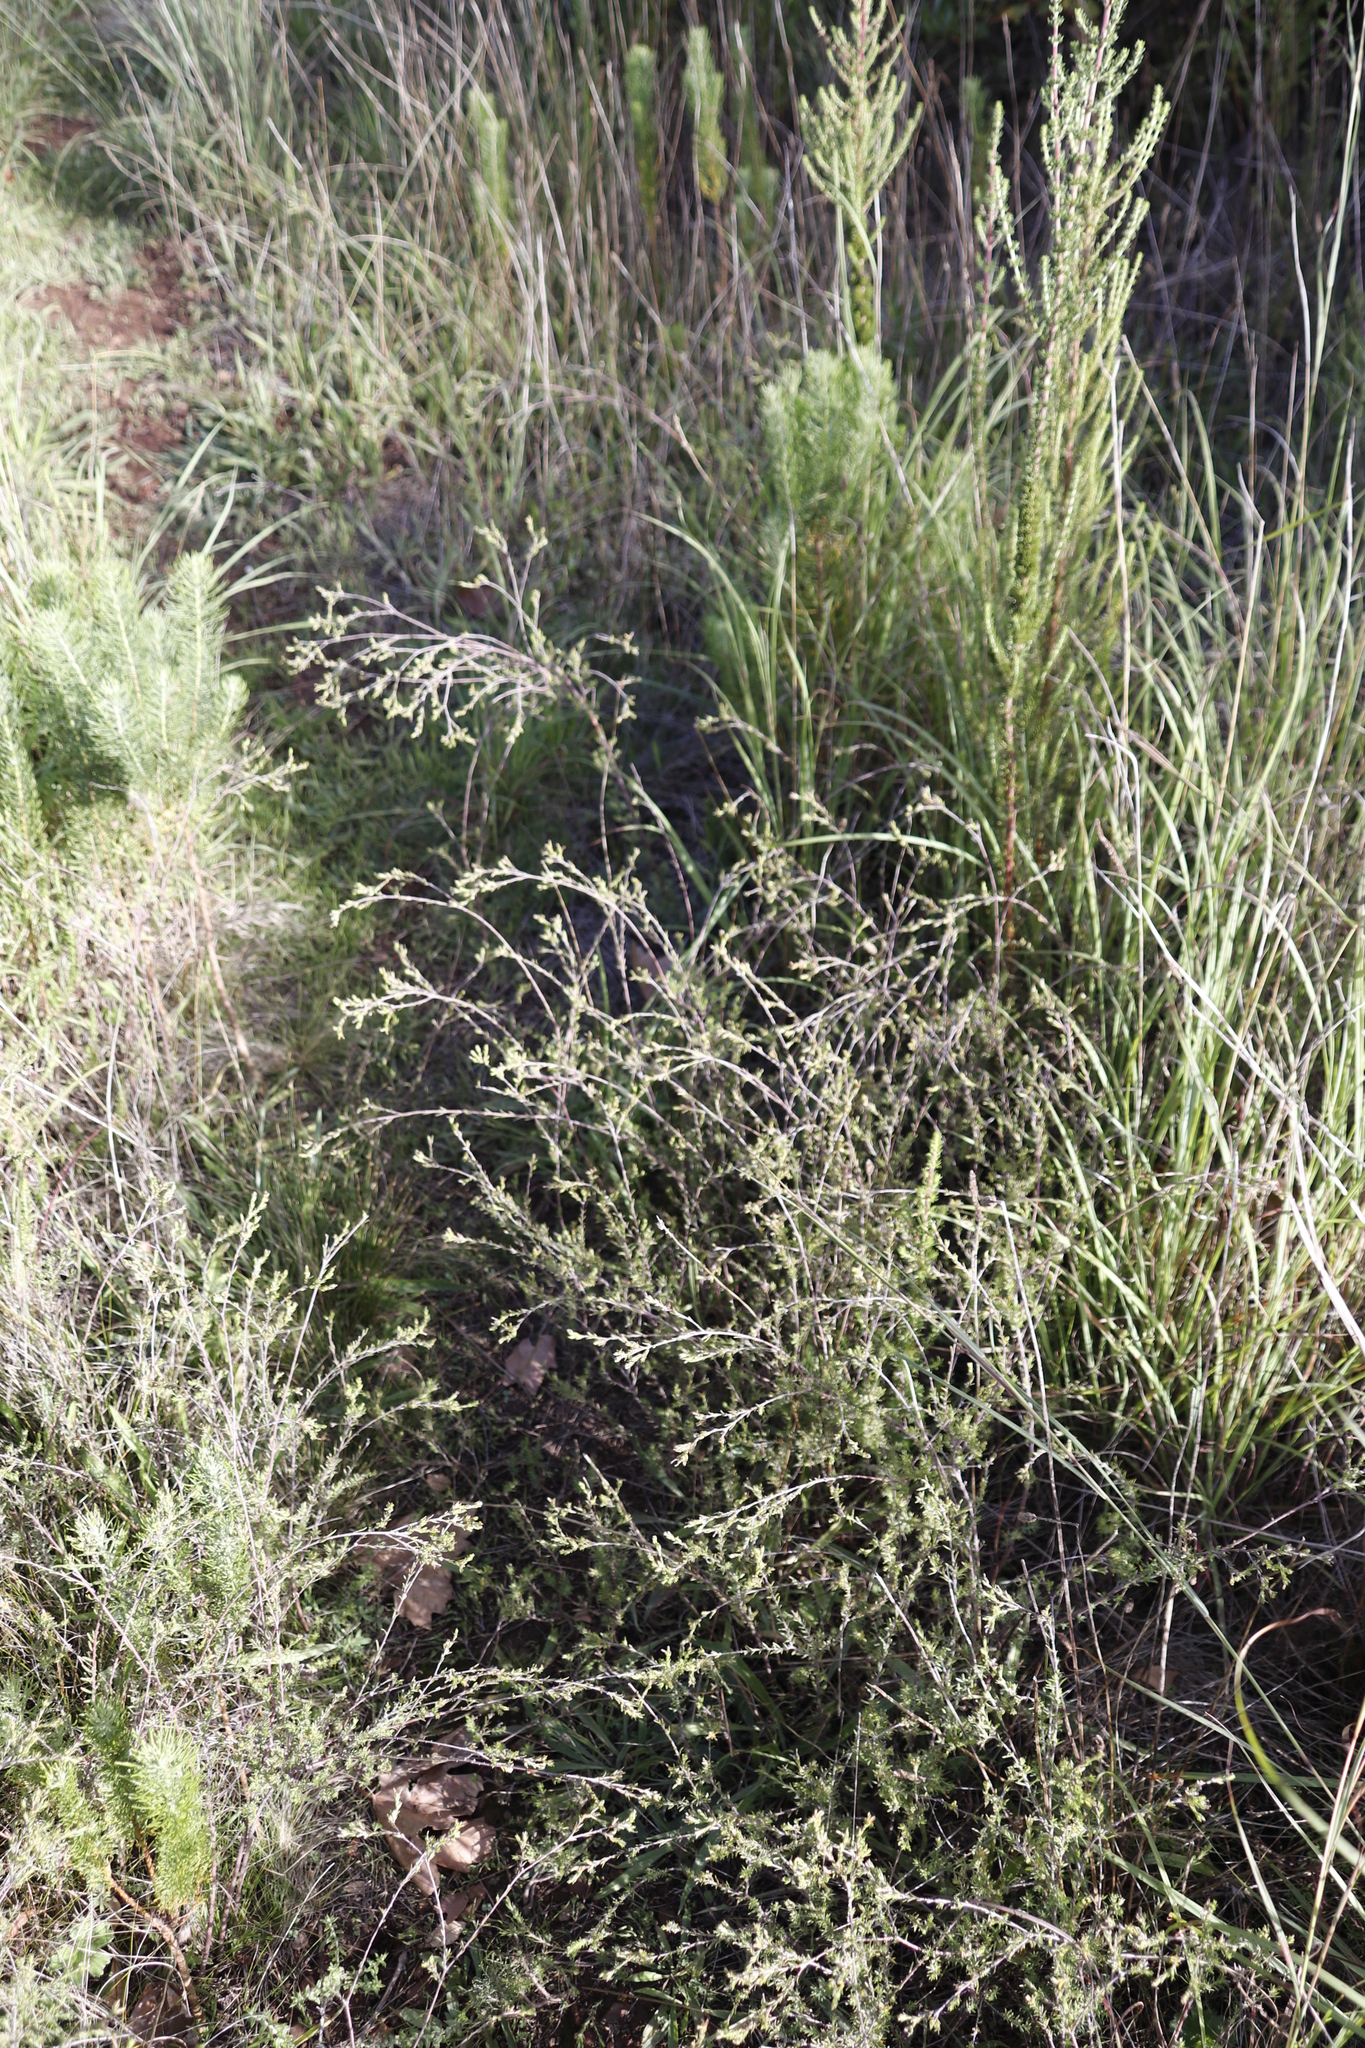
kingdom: Plantae
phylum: Tracheophyta
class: Magnoliopsida
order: Malvales
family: Thymelaeaceae
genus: Gnidia
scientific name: Gnidia laxa
